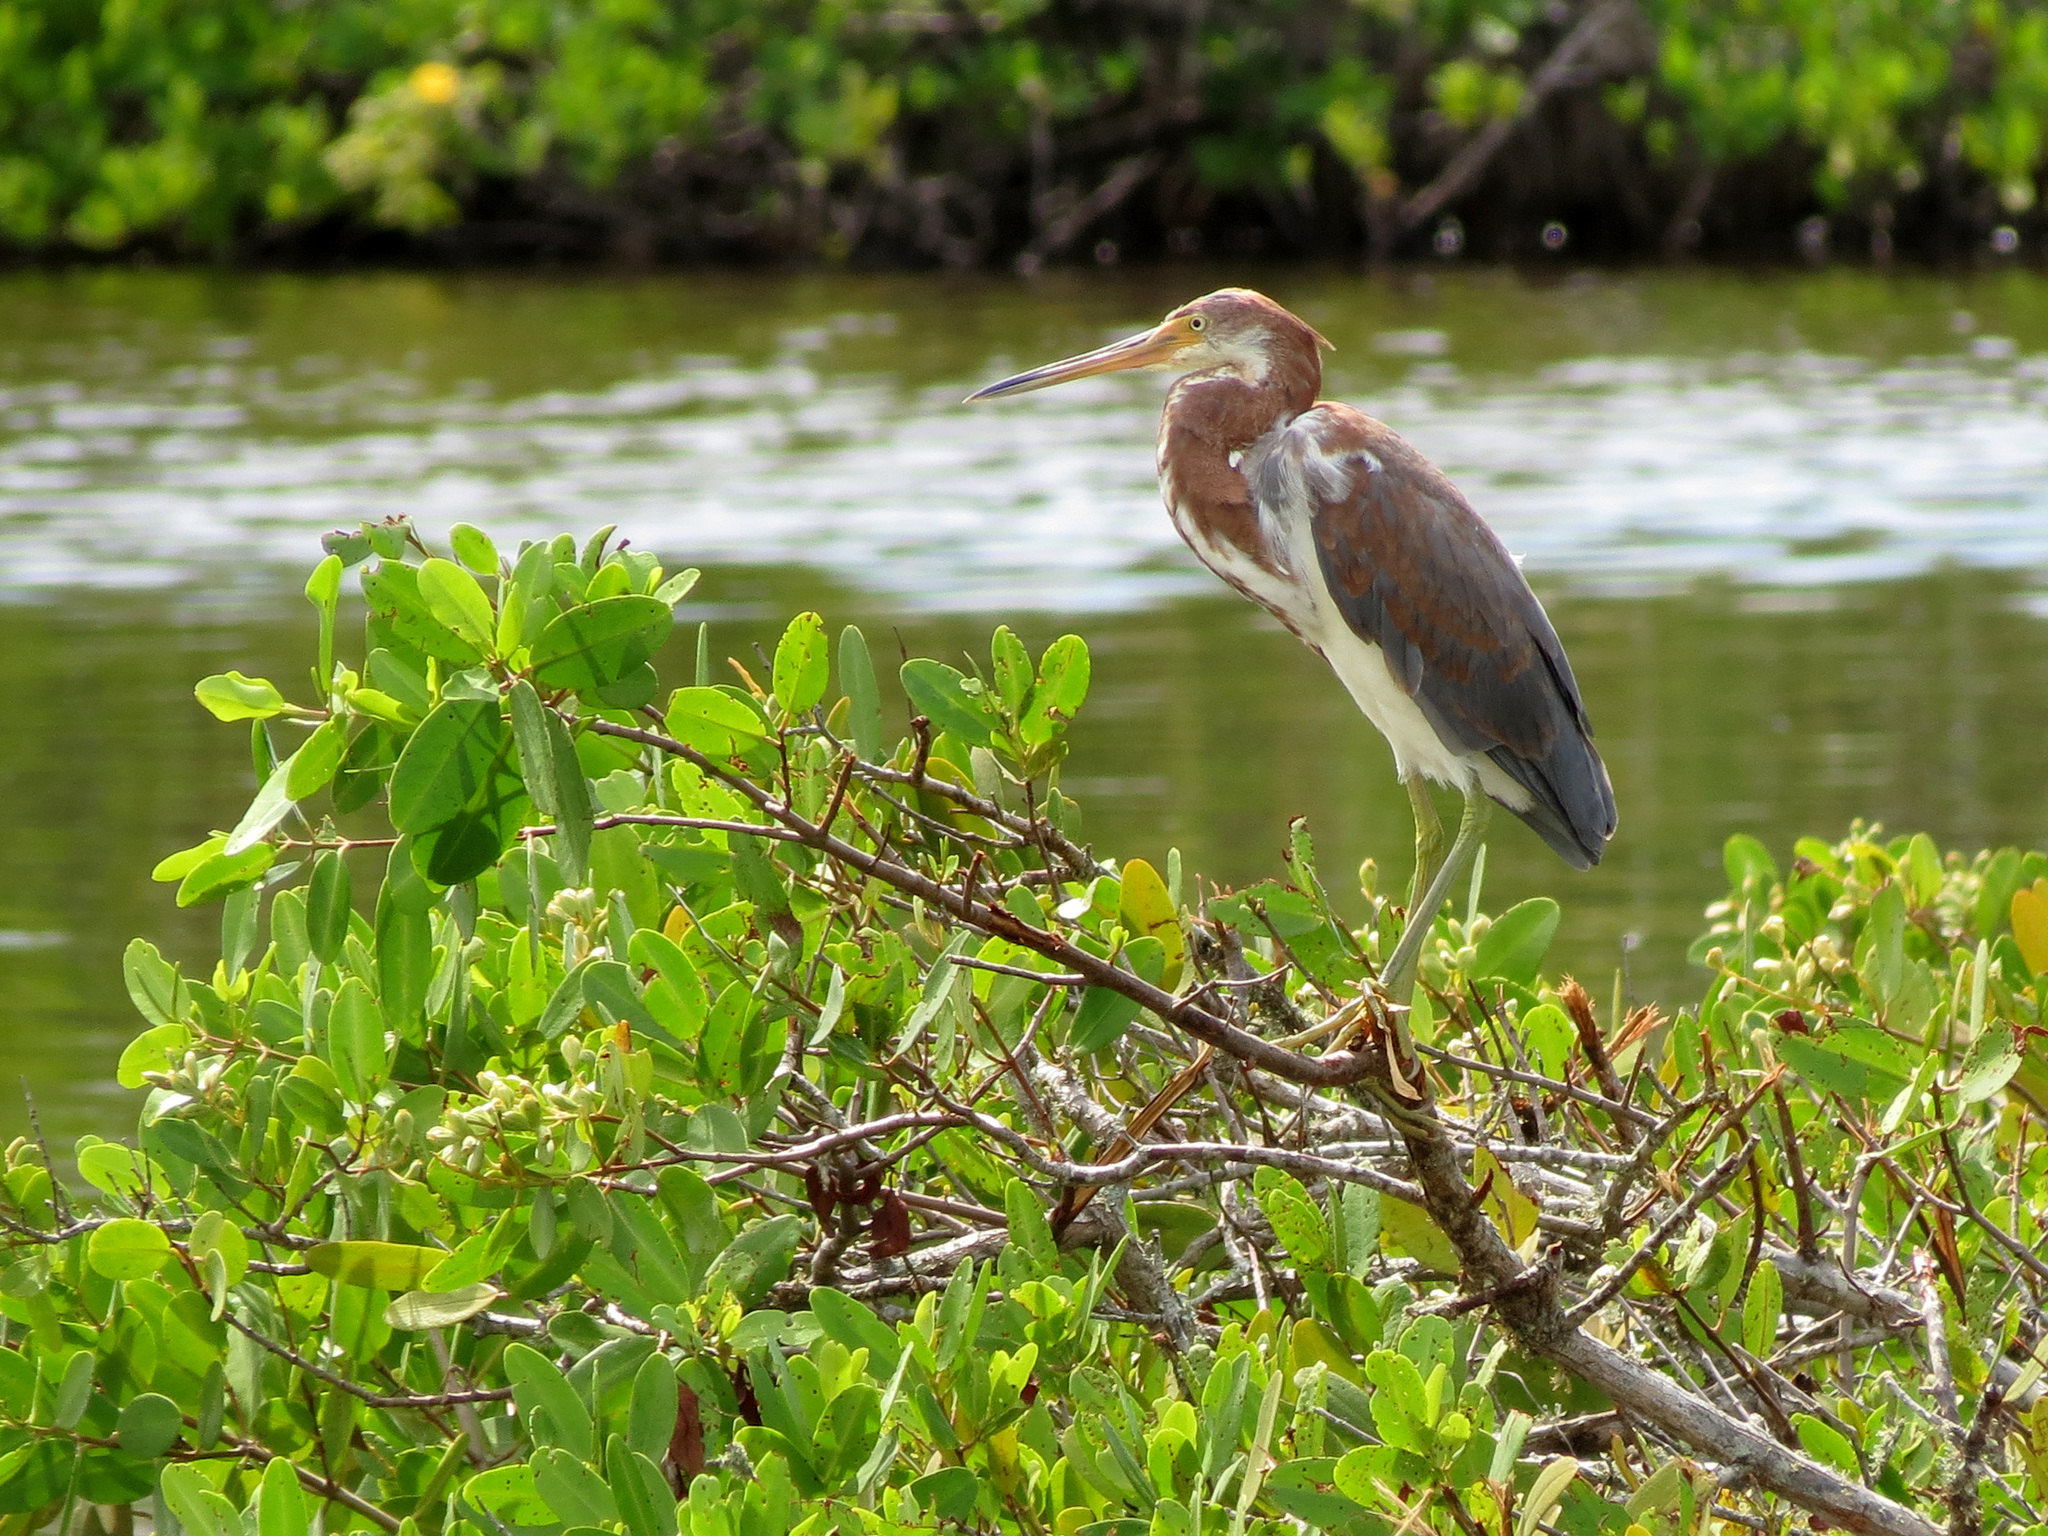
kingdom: Animalia
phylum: Chordata
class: Aves
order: Pelecaniformes
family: Ardeidae
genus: Egretta
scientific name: Egretta tricolor
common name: Tricolored heron
